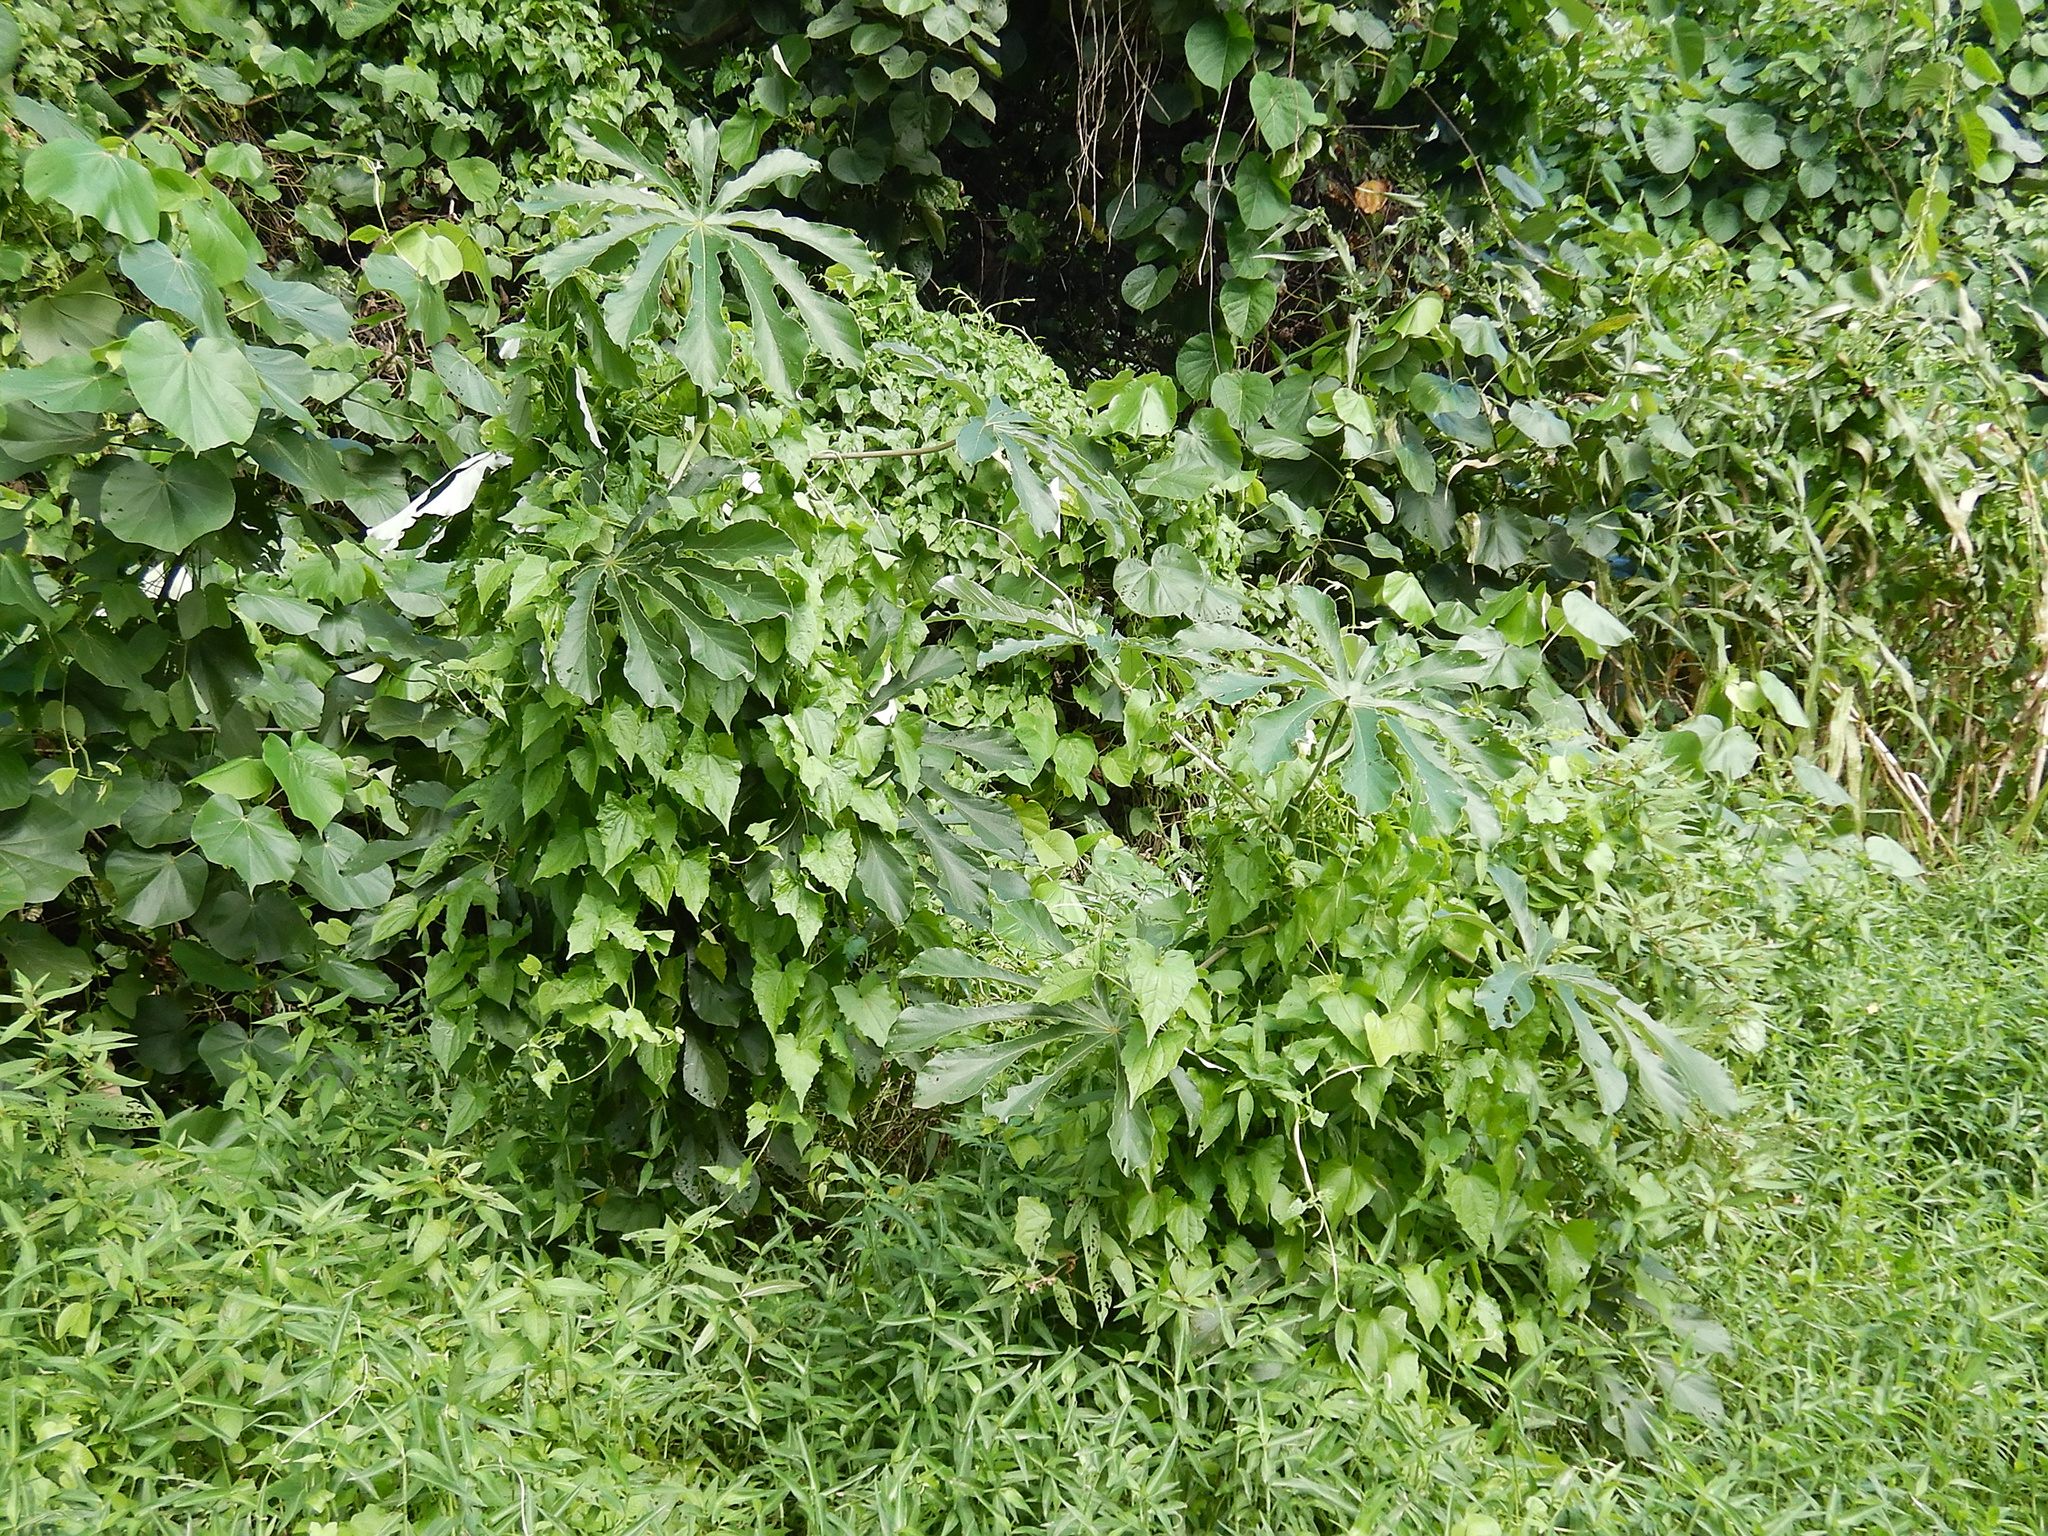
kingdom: Plantae
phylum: Tracheophyta
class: Magnoliopsida
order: Rosales
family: Urticaceae
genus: Cecropia
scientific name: Cecropia pachystachya
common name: Ambay pumpwood
